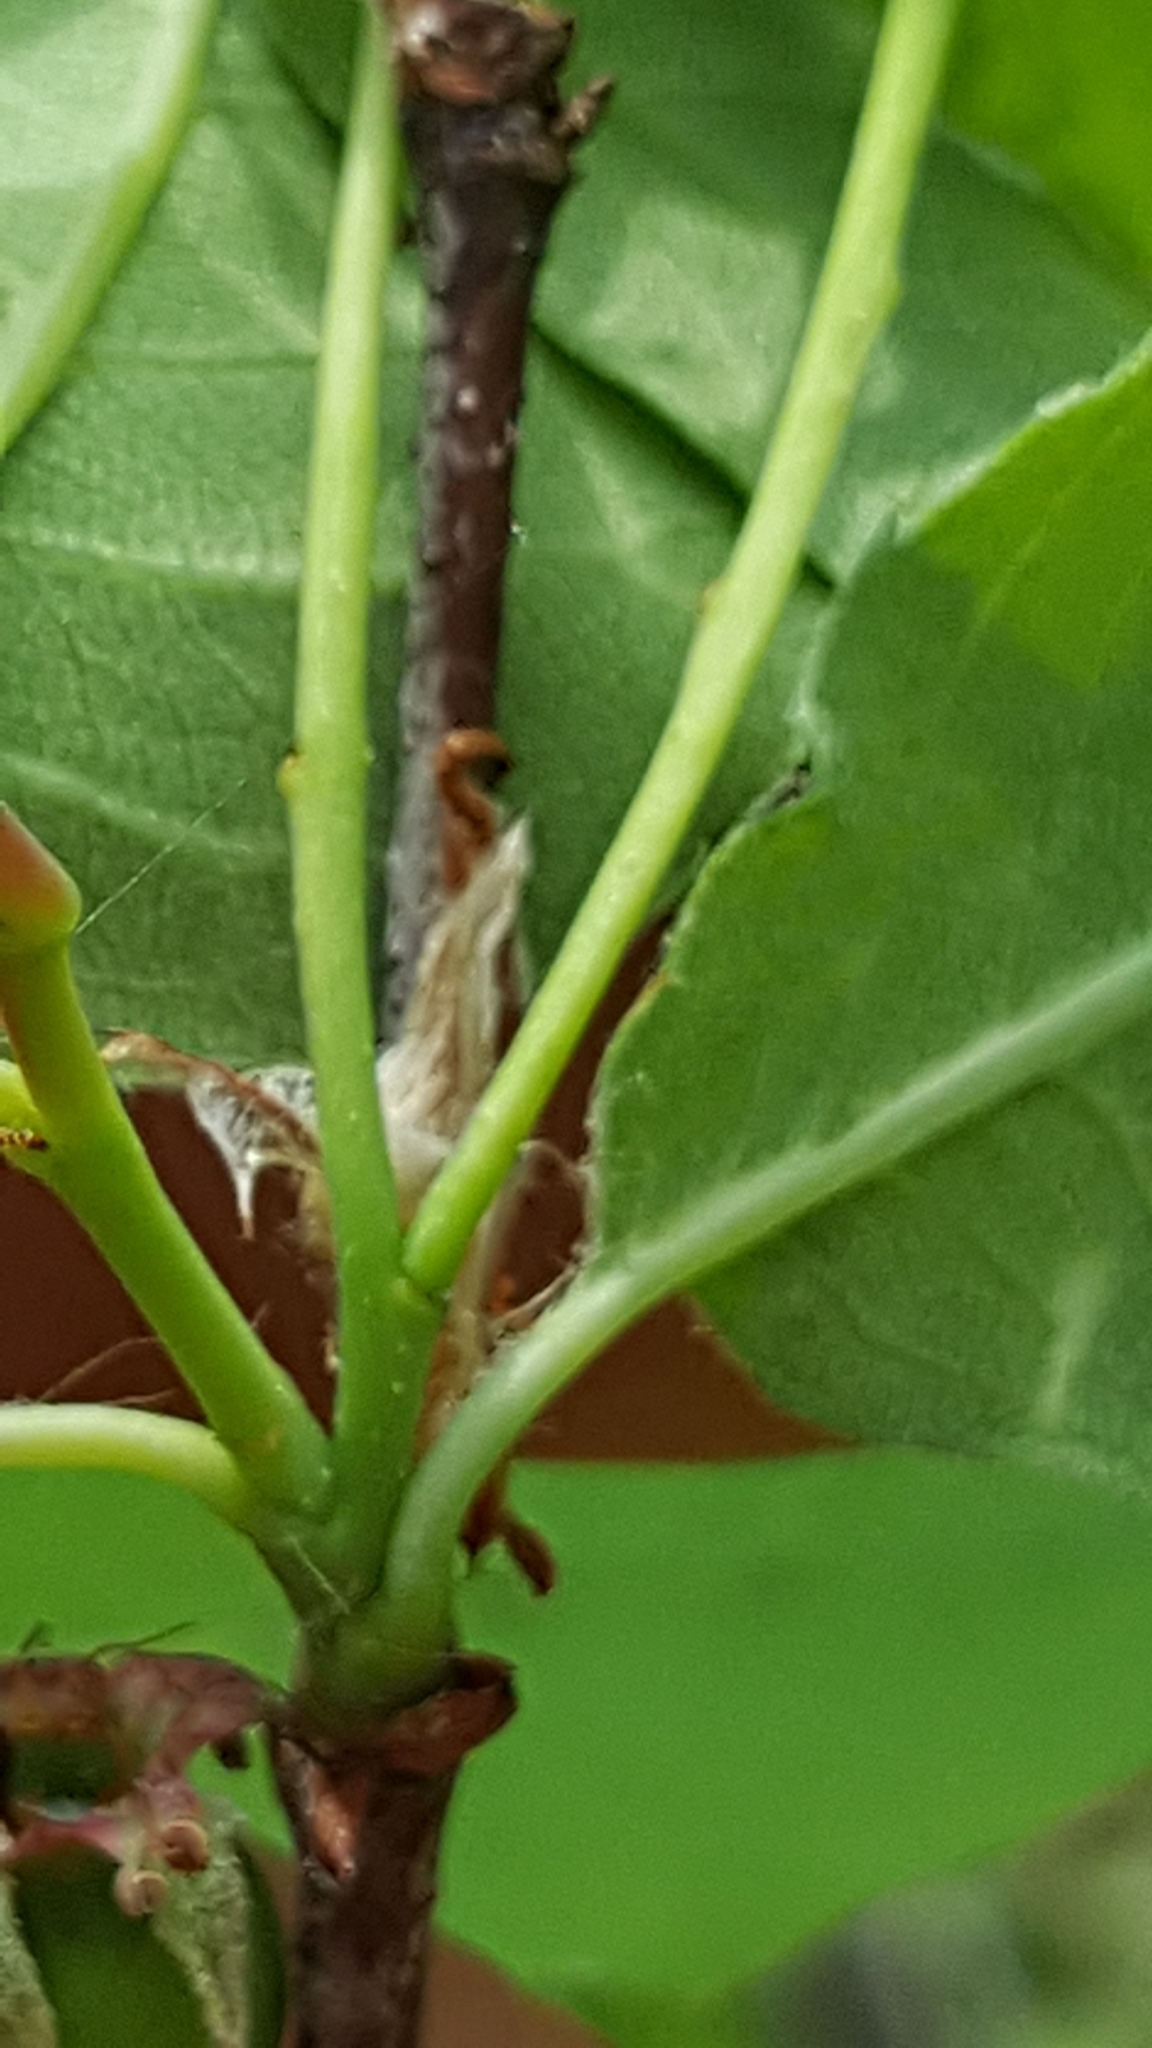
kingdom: Plantae
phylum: Tracheophyta
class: Magnoliopsida
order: Rosales
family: Rosaceae
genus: Amelanchier
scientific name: Amelanchier
